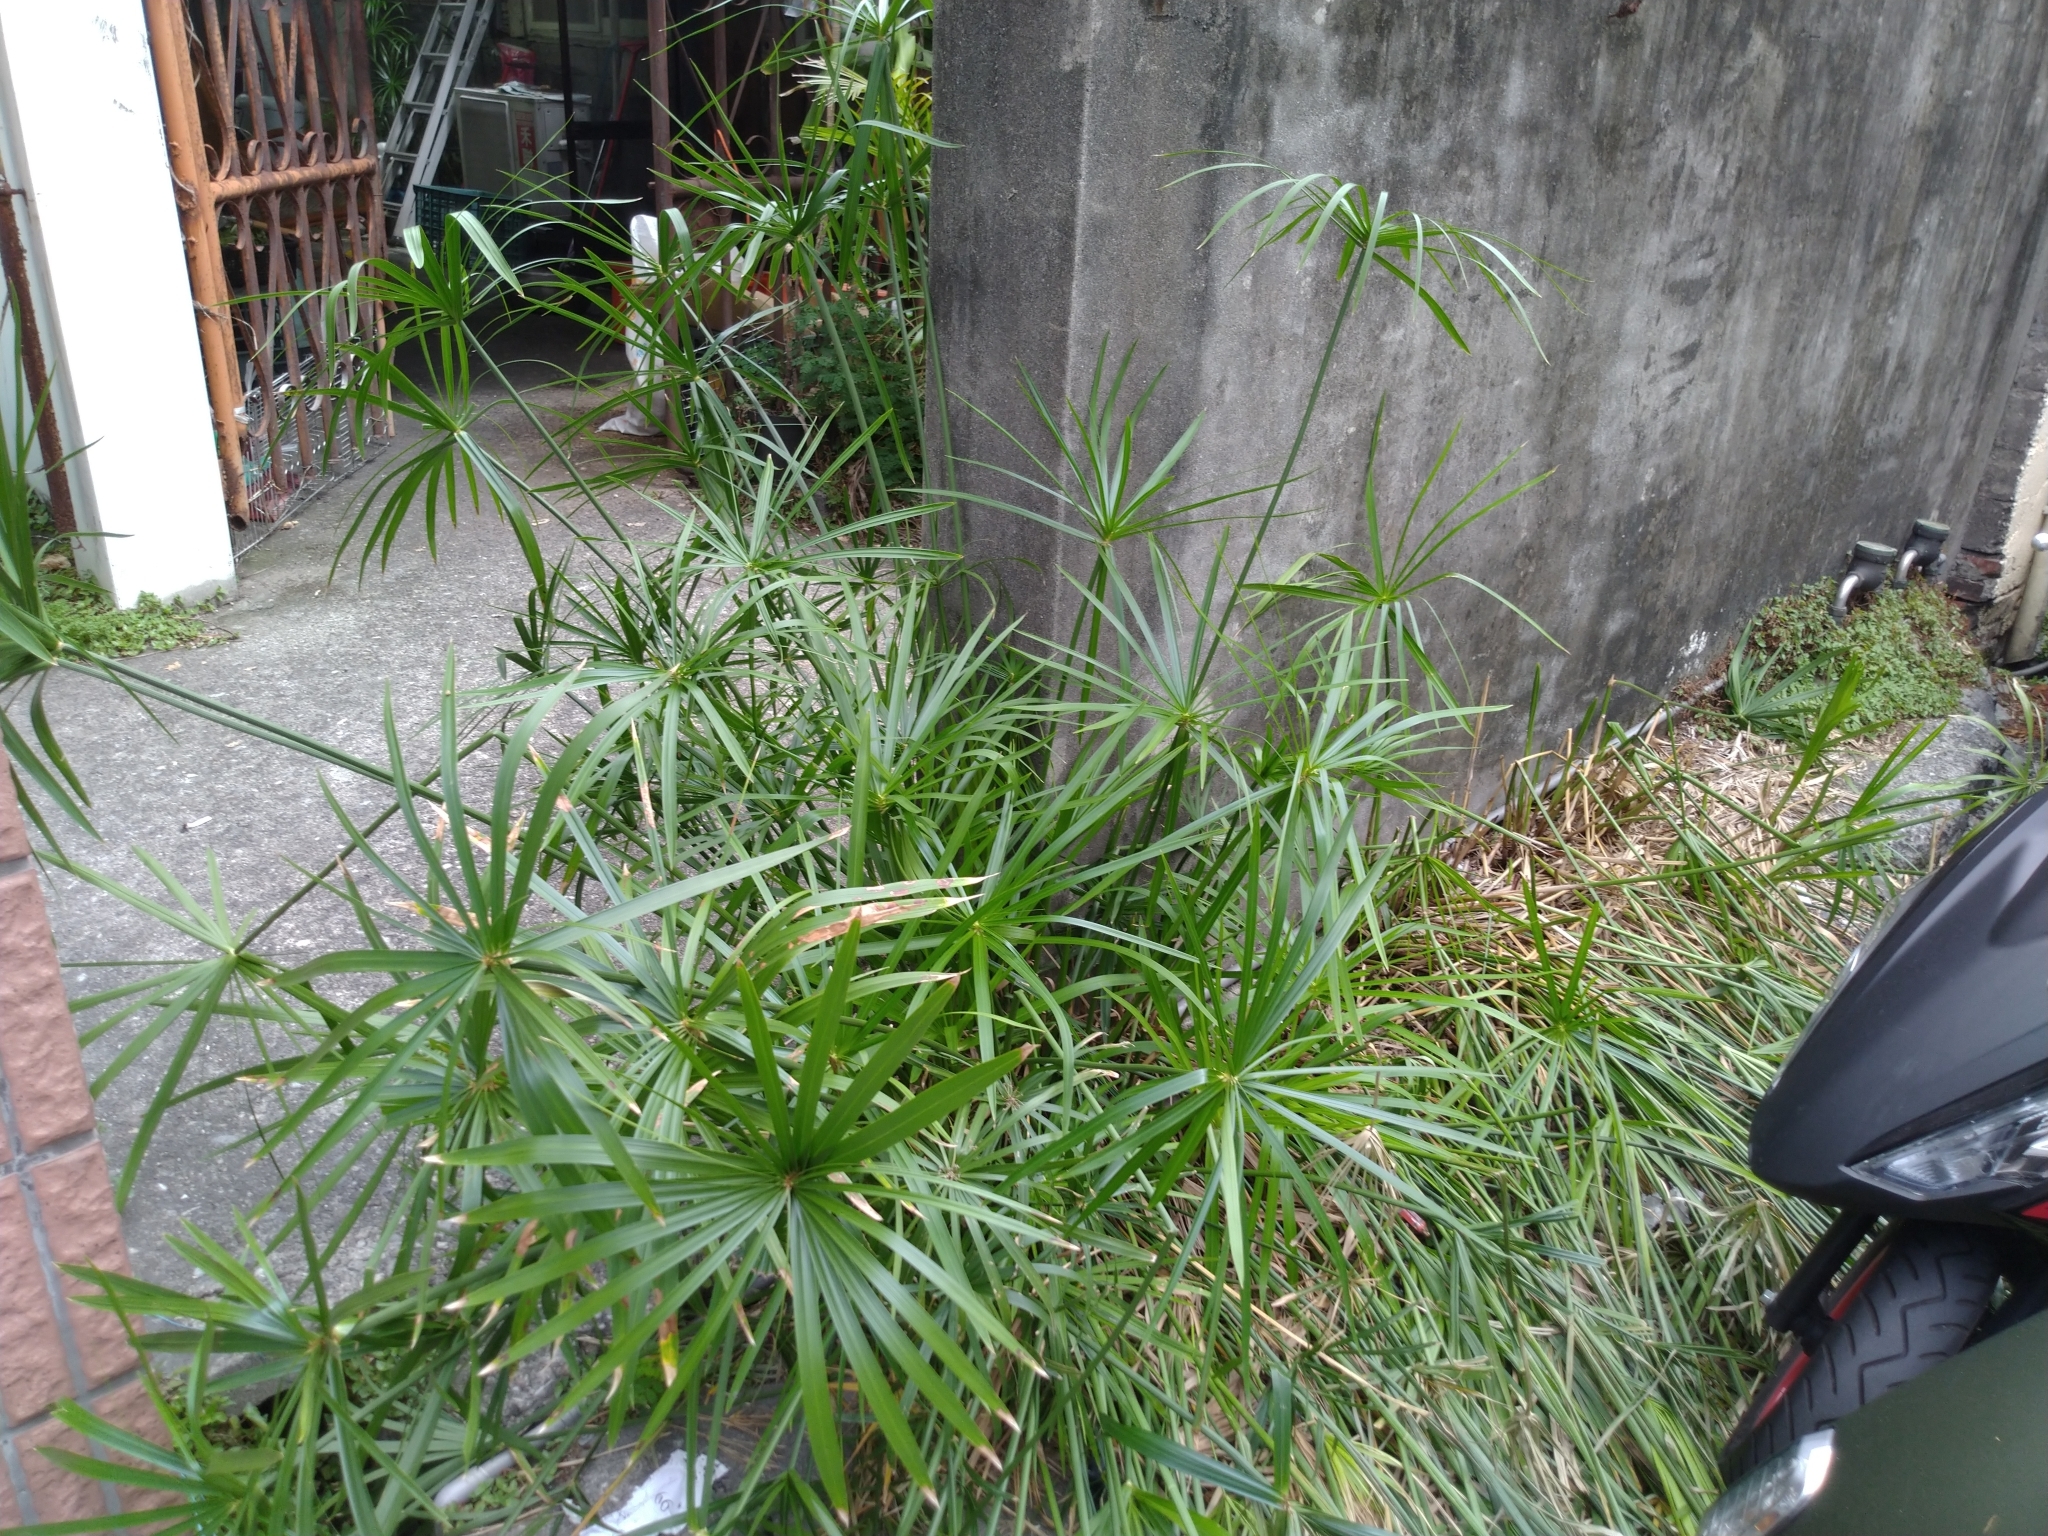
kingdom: Plantae
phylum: Tracheophyta
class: Liliopsida
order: Poales
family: Cyperaceae
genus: Cyperus
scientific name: Cyperus alternifolius
